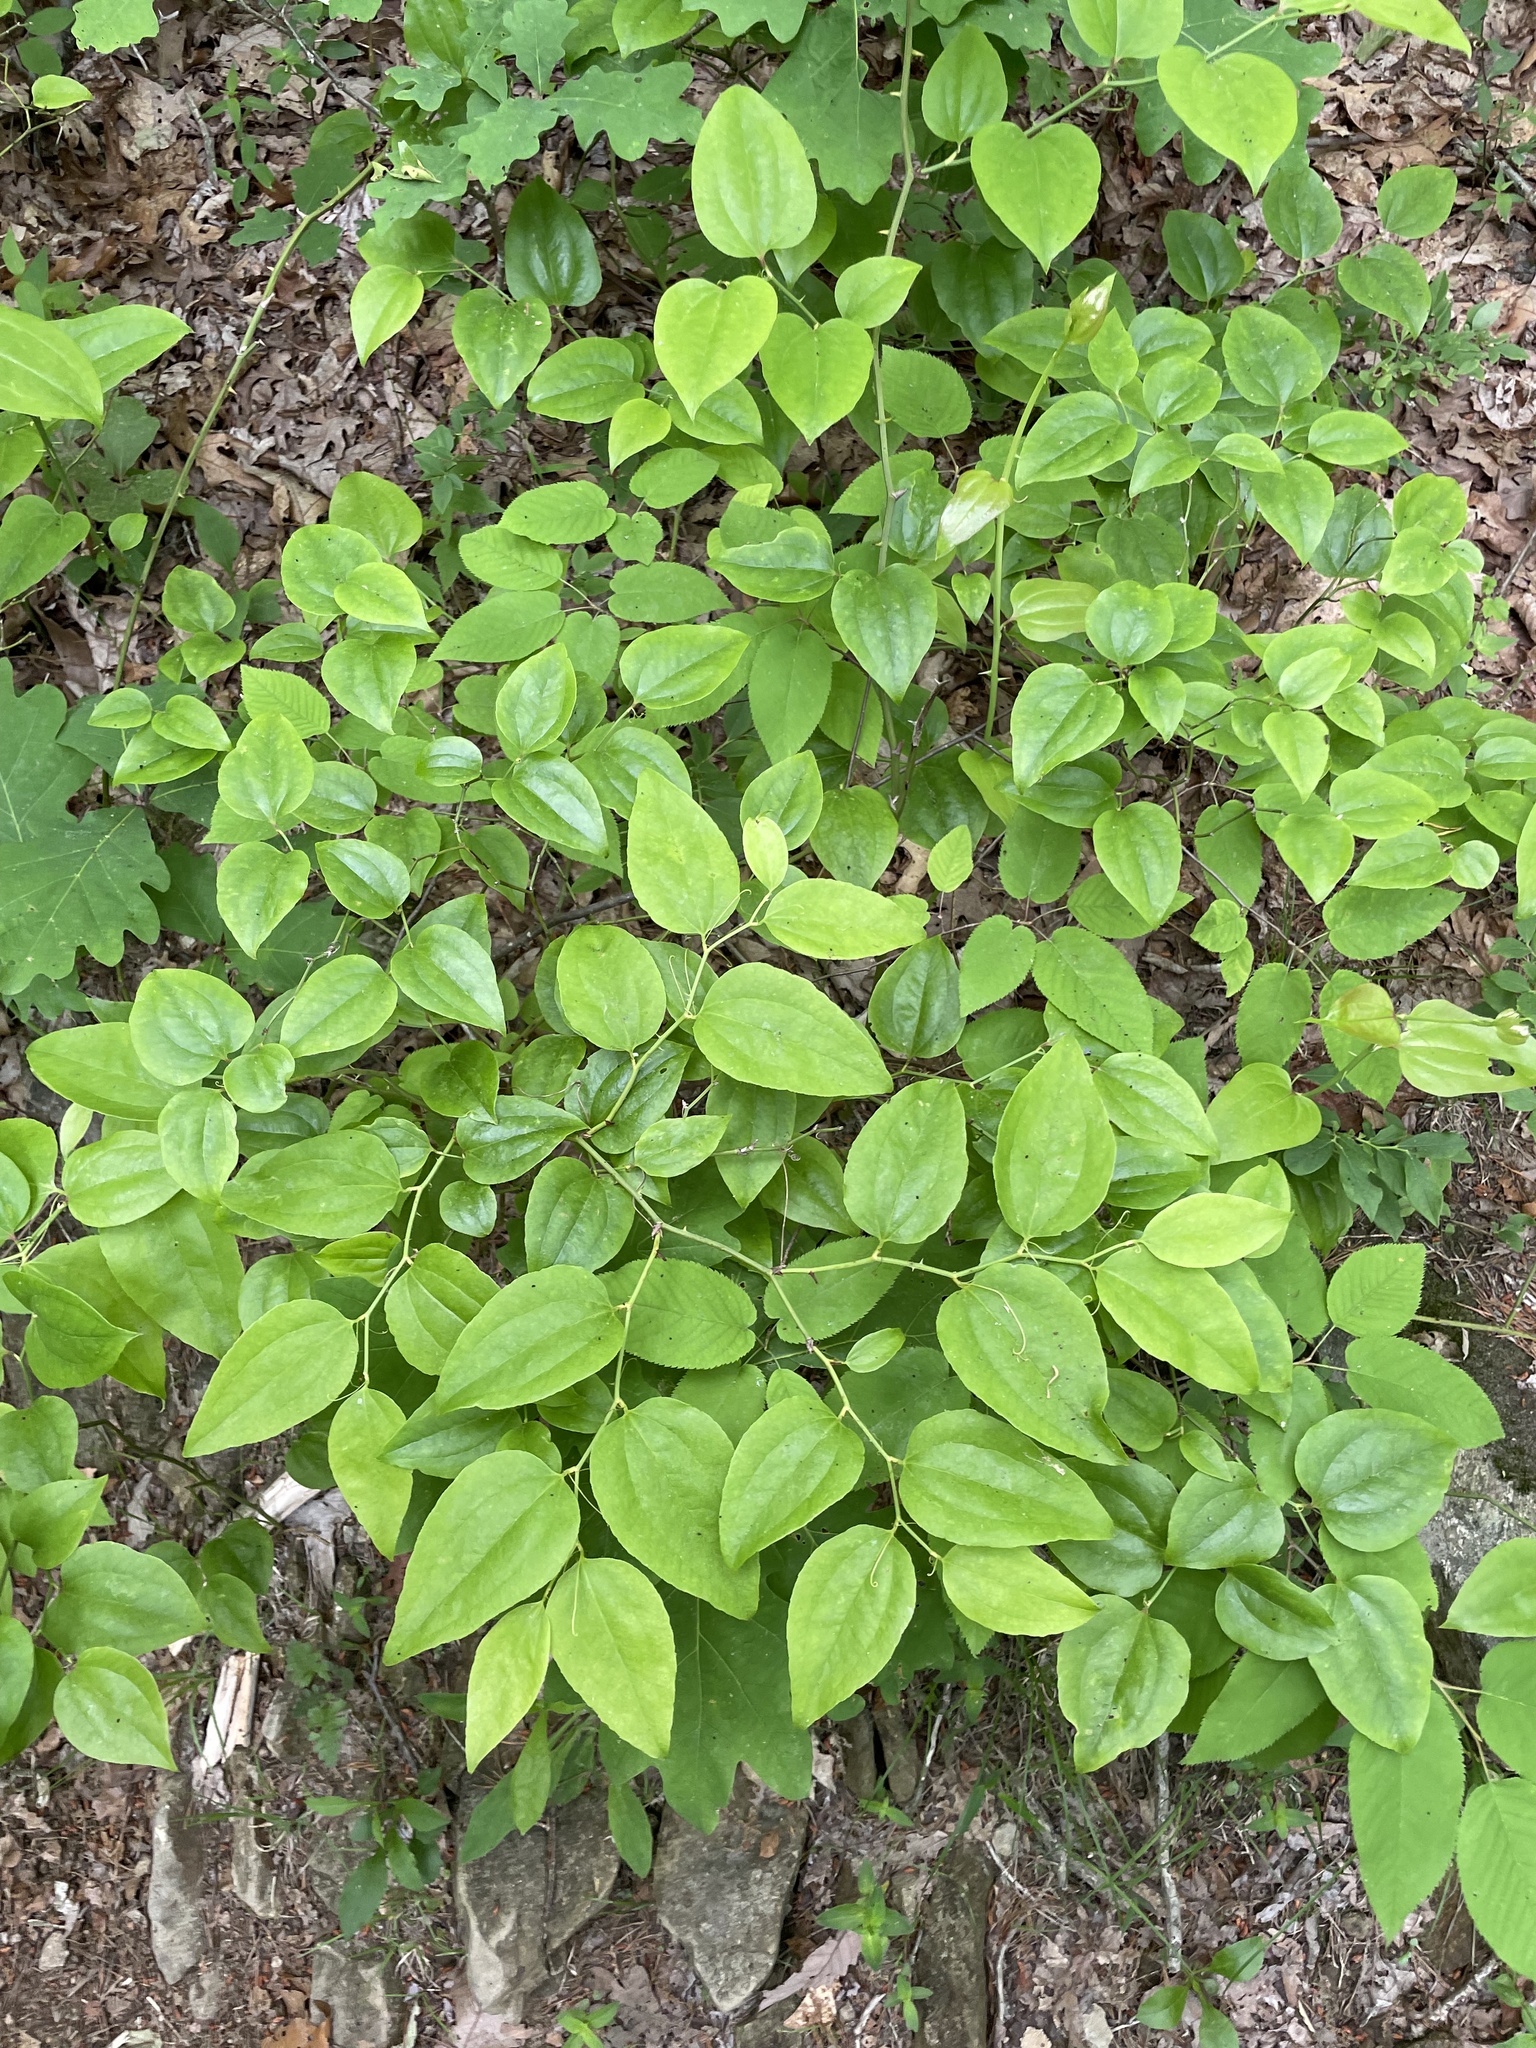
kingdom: Plantae
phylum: Tracheophyta
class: Liliopsida
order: Liliales
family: Smilacaceae
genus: Smilax
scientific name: Smilax rotundifolia
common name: Bullbriar
